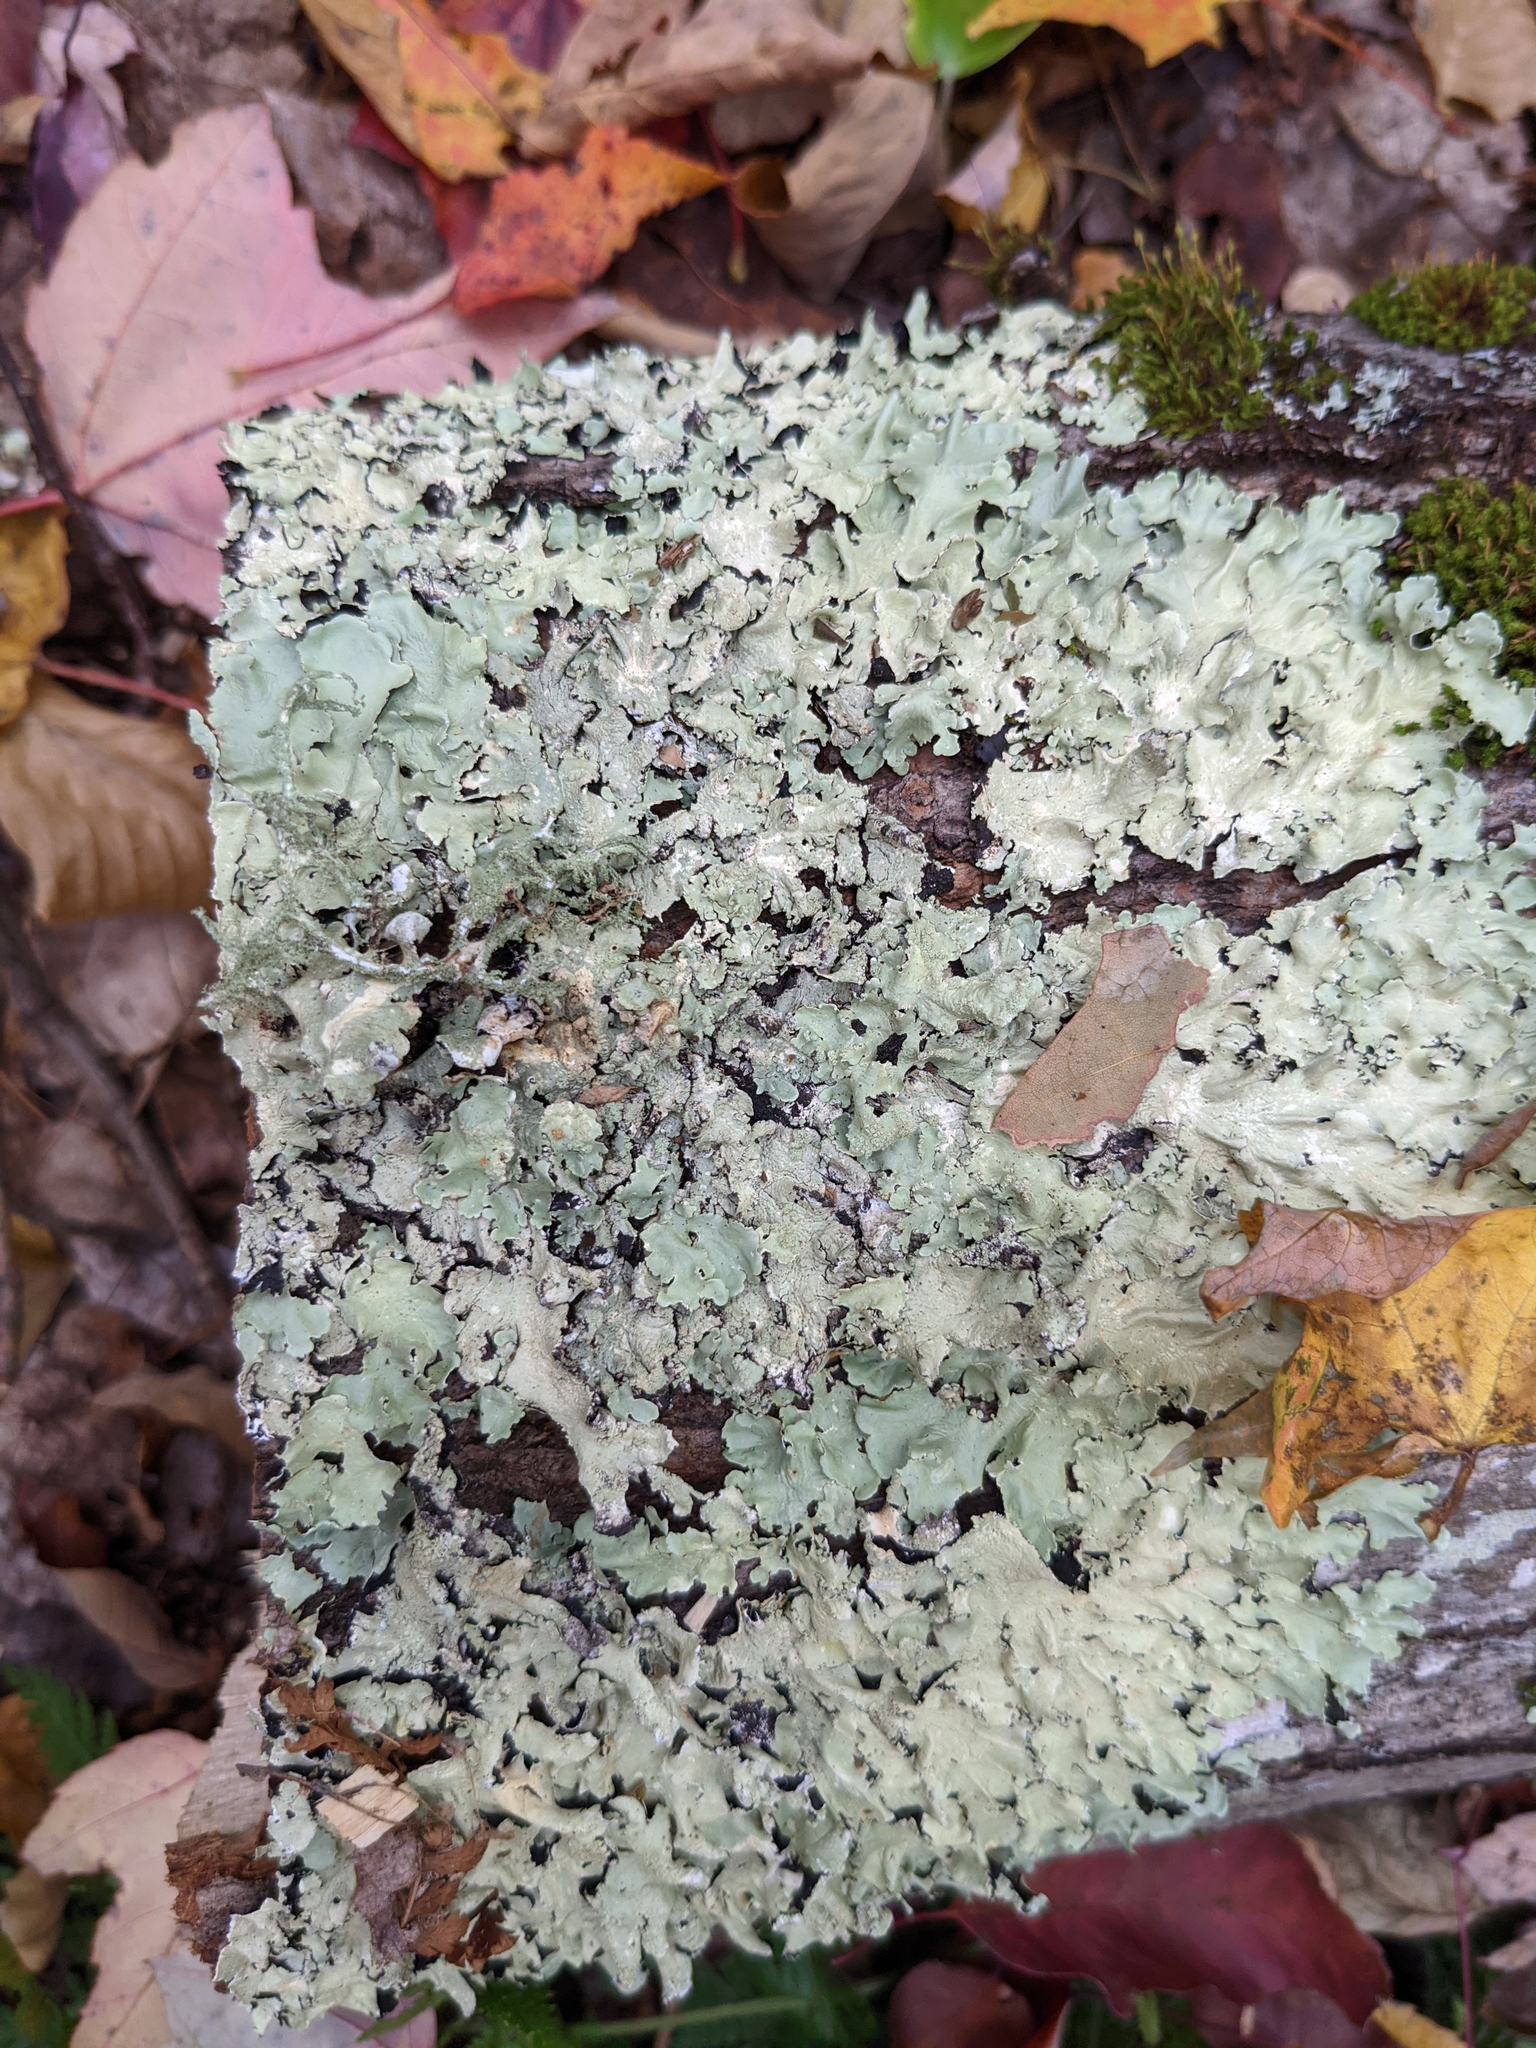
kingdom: Fungi
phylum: Ascomycota
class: Lecanoromycetes
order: Lecanorales
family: Parmeliaceae
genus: Flavoparmelia
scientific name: Flavoparmelia caperata
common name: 40-mile per hour lichen
